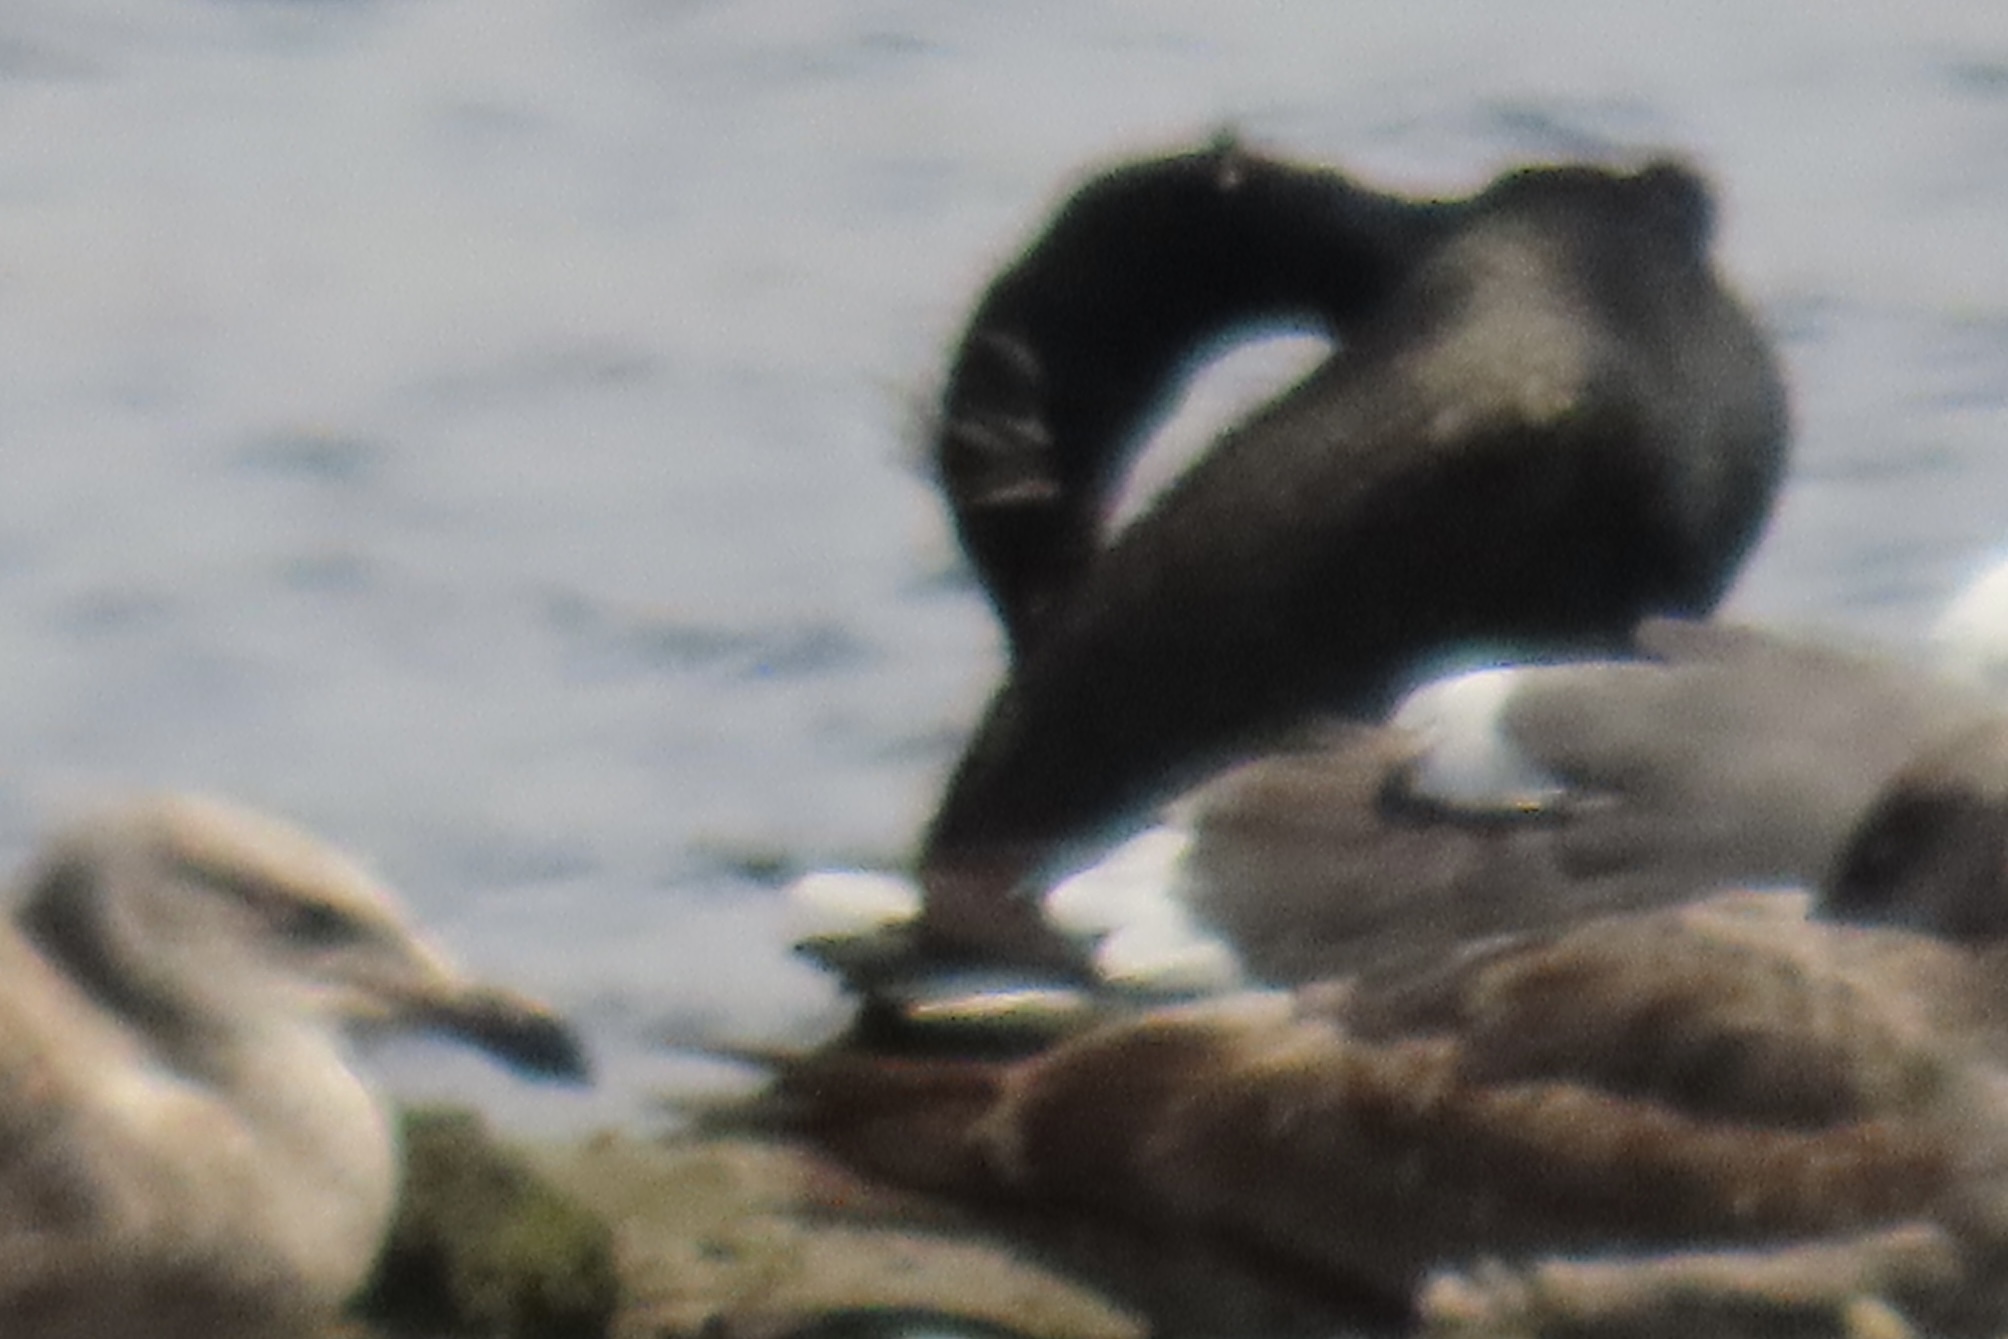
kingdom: Animalia
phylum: Chordata
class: Aves
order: Suliformes
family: Phalacrocoracidae
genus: Phalacrocorax
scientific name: Phalacrocorax auritus
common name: Double-crested cormorant
